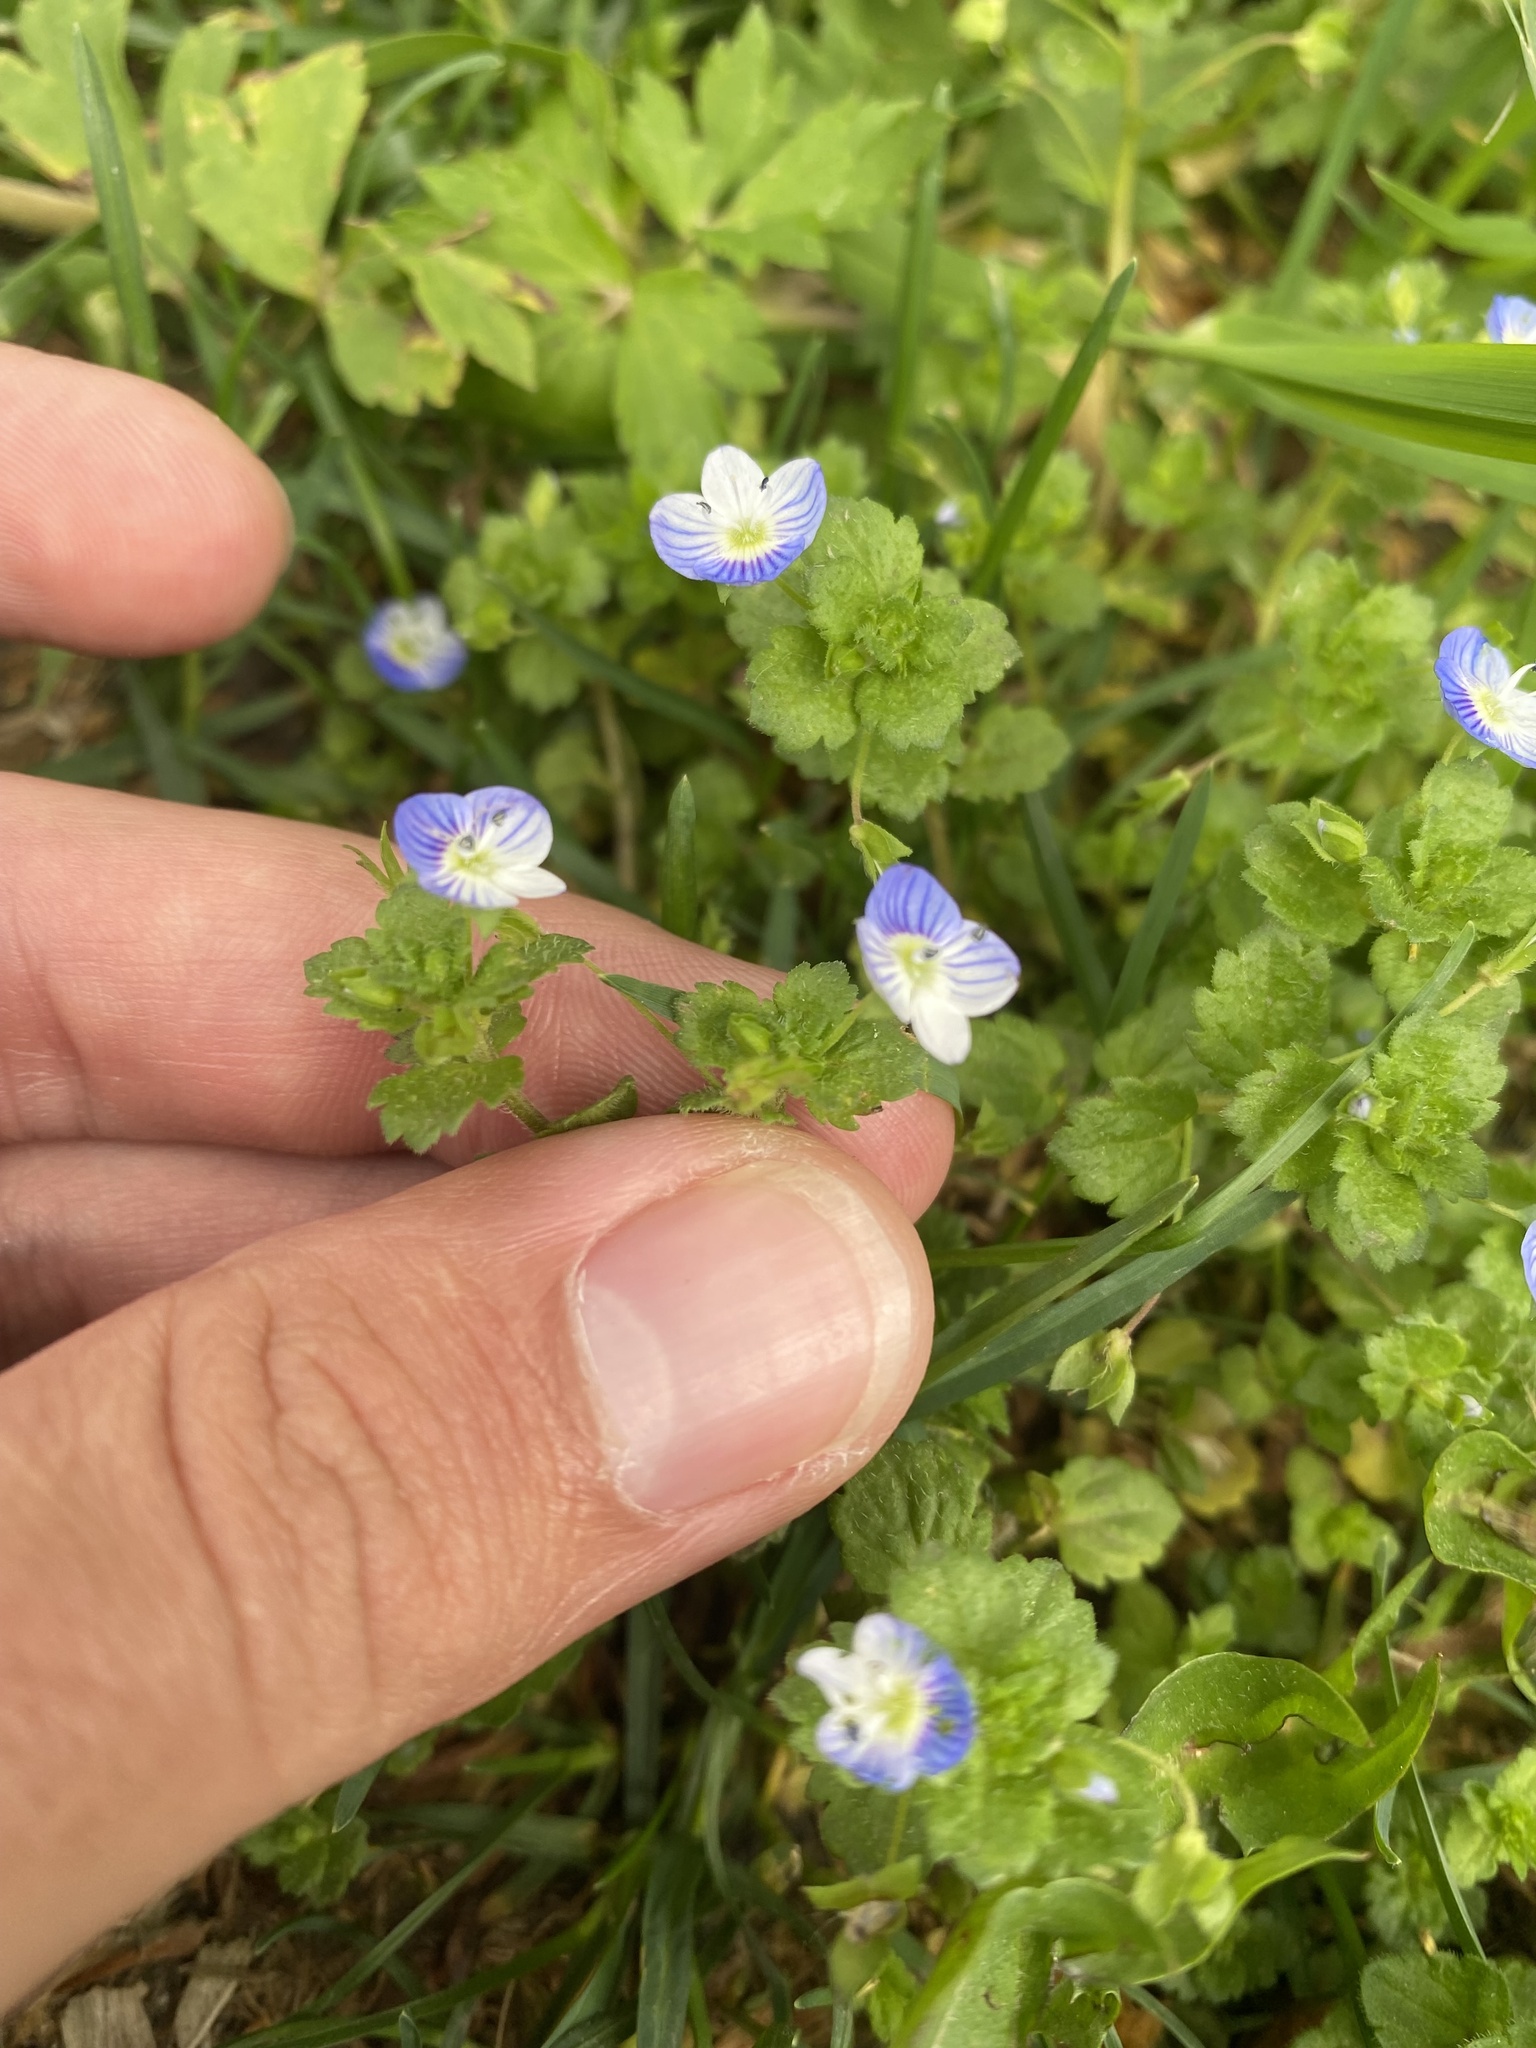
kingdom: Plantae
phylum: Tracheophyta
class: Magnoliopsida
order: Lamiales
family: Plantaginaceae
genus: Veronica
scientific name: Veronica persica
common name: Common field-speedwell
